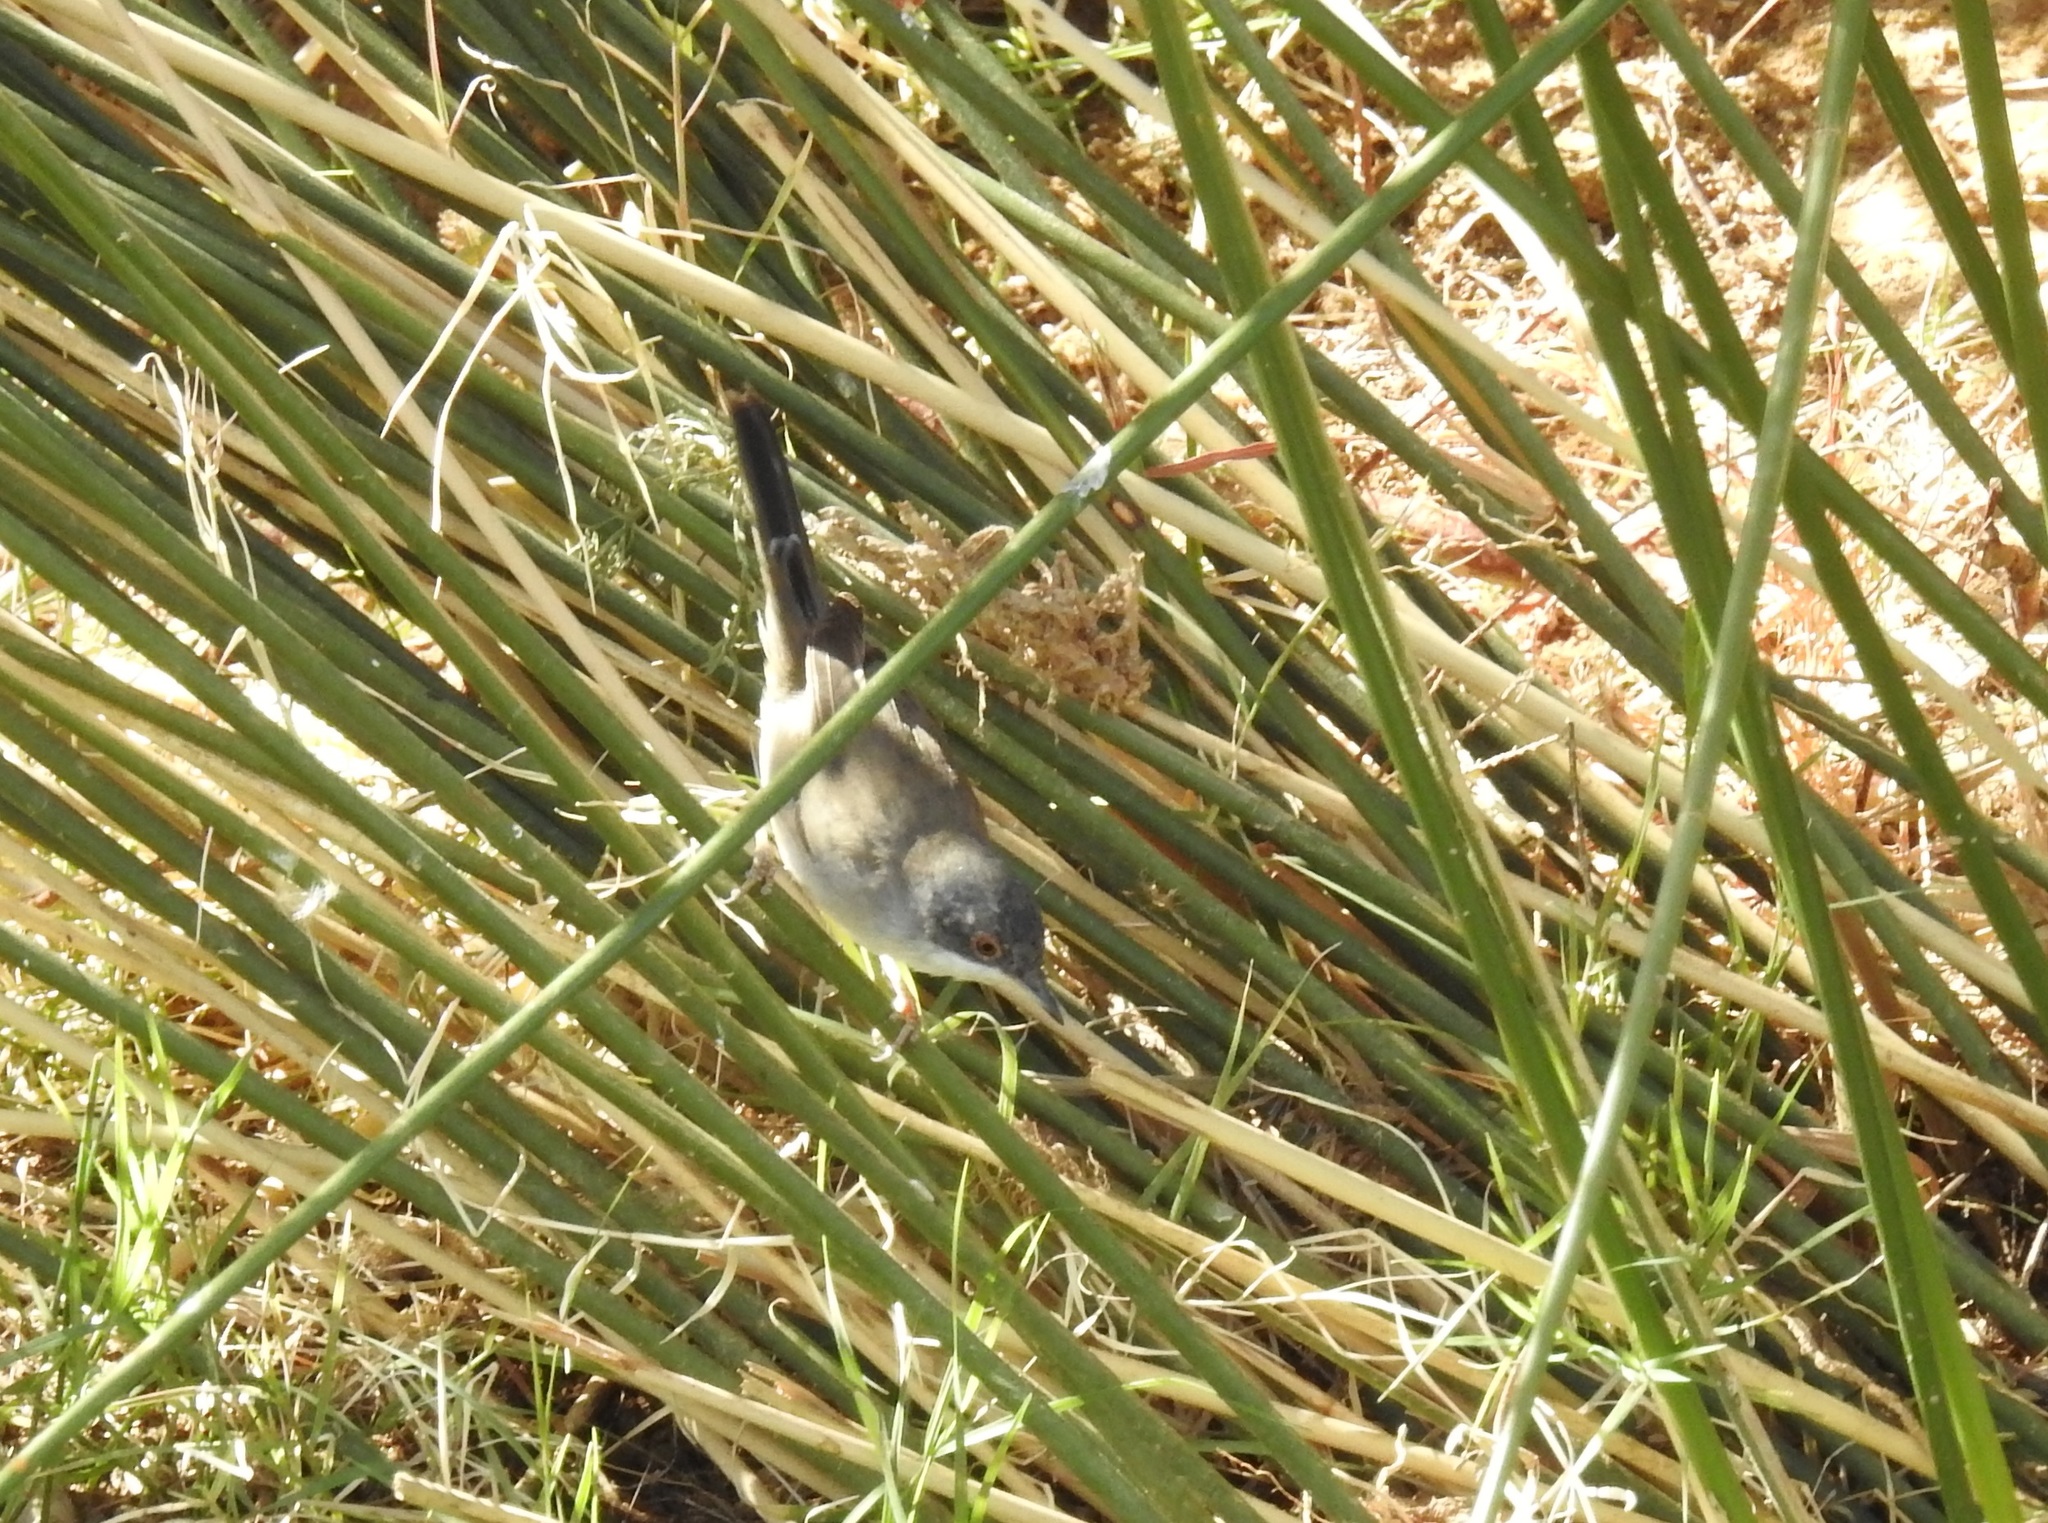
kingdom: Animalia
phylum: Chordata
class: Aves
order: Passeriformes
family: Sylviidae
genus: Curruca
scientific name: Curruca melanocephala
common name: Sardinian warbler
